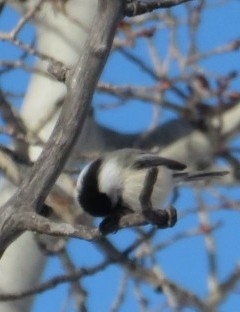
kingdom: Animalia
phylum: Chordata
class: Aves
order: Passeriformes
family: Paridae
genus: Poecile
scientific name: Poecile atricapillus
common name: Black-capped chickadee
